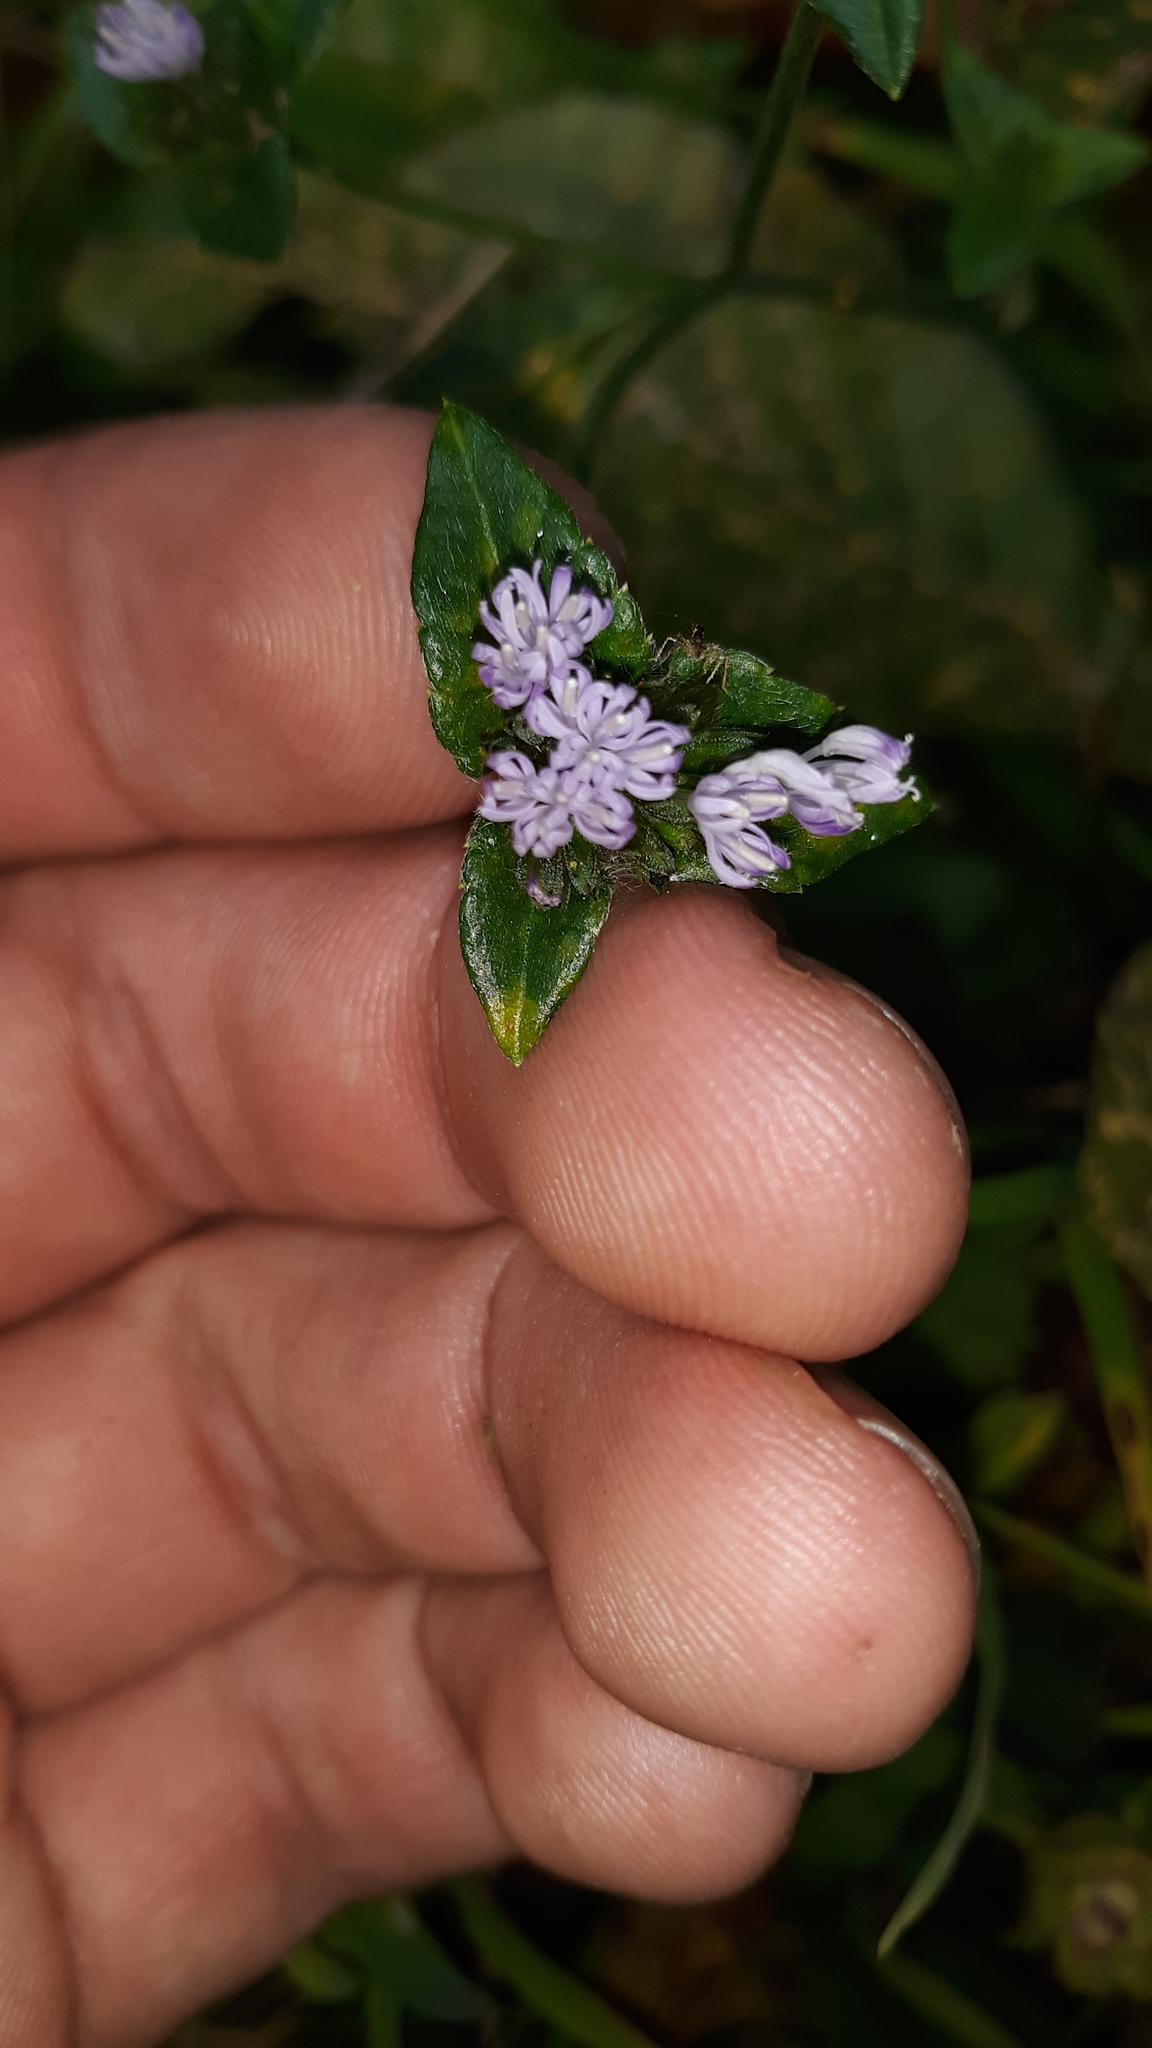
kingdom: Plantae
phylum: Tracheophyta
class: Magnoliopsida
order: Asterales
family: Asteraceae
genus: Elephantopus
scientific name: Elephantopus carolinianus
